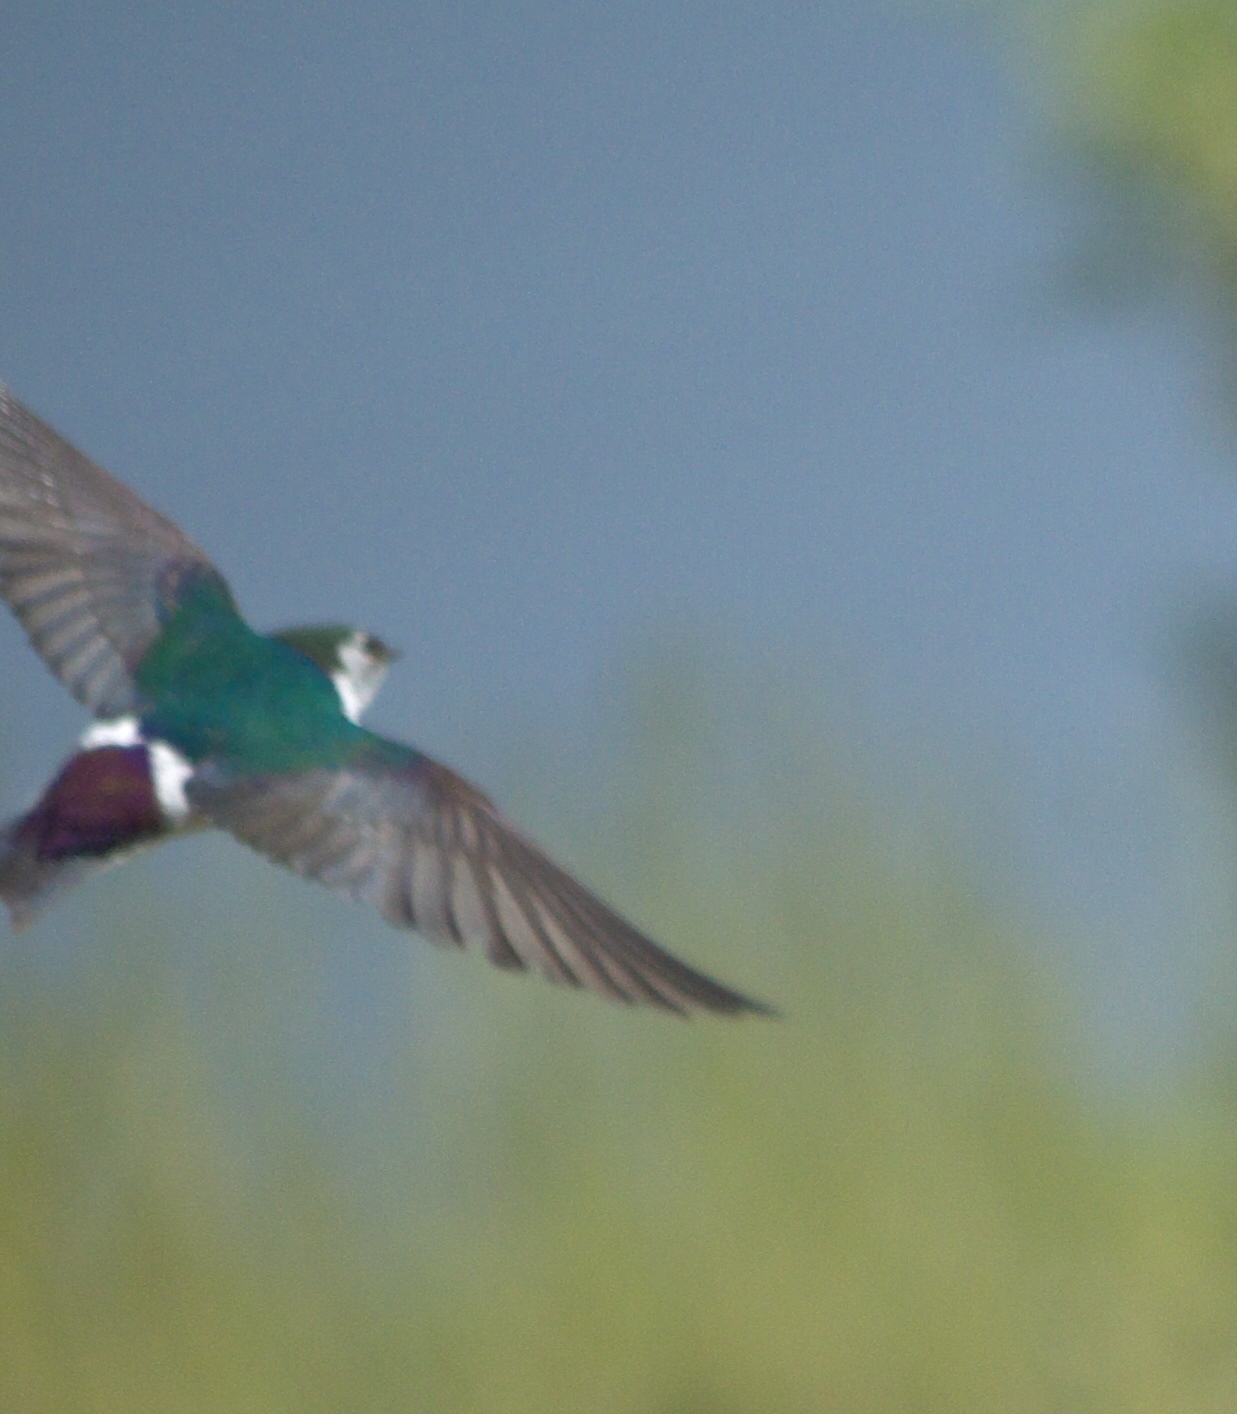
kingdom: Animalia
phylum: Chordata
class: Aves
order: Passeriformes
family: Hirundinidae
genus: Tachycineta
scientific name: Tachycineta thalassina
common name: Violet-green swallow
